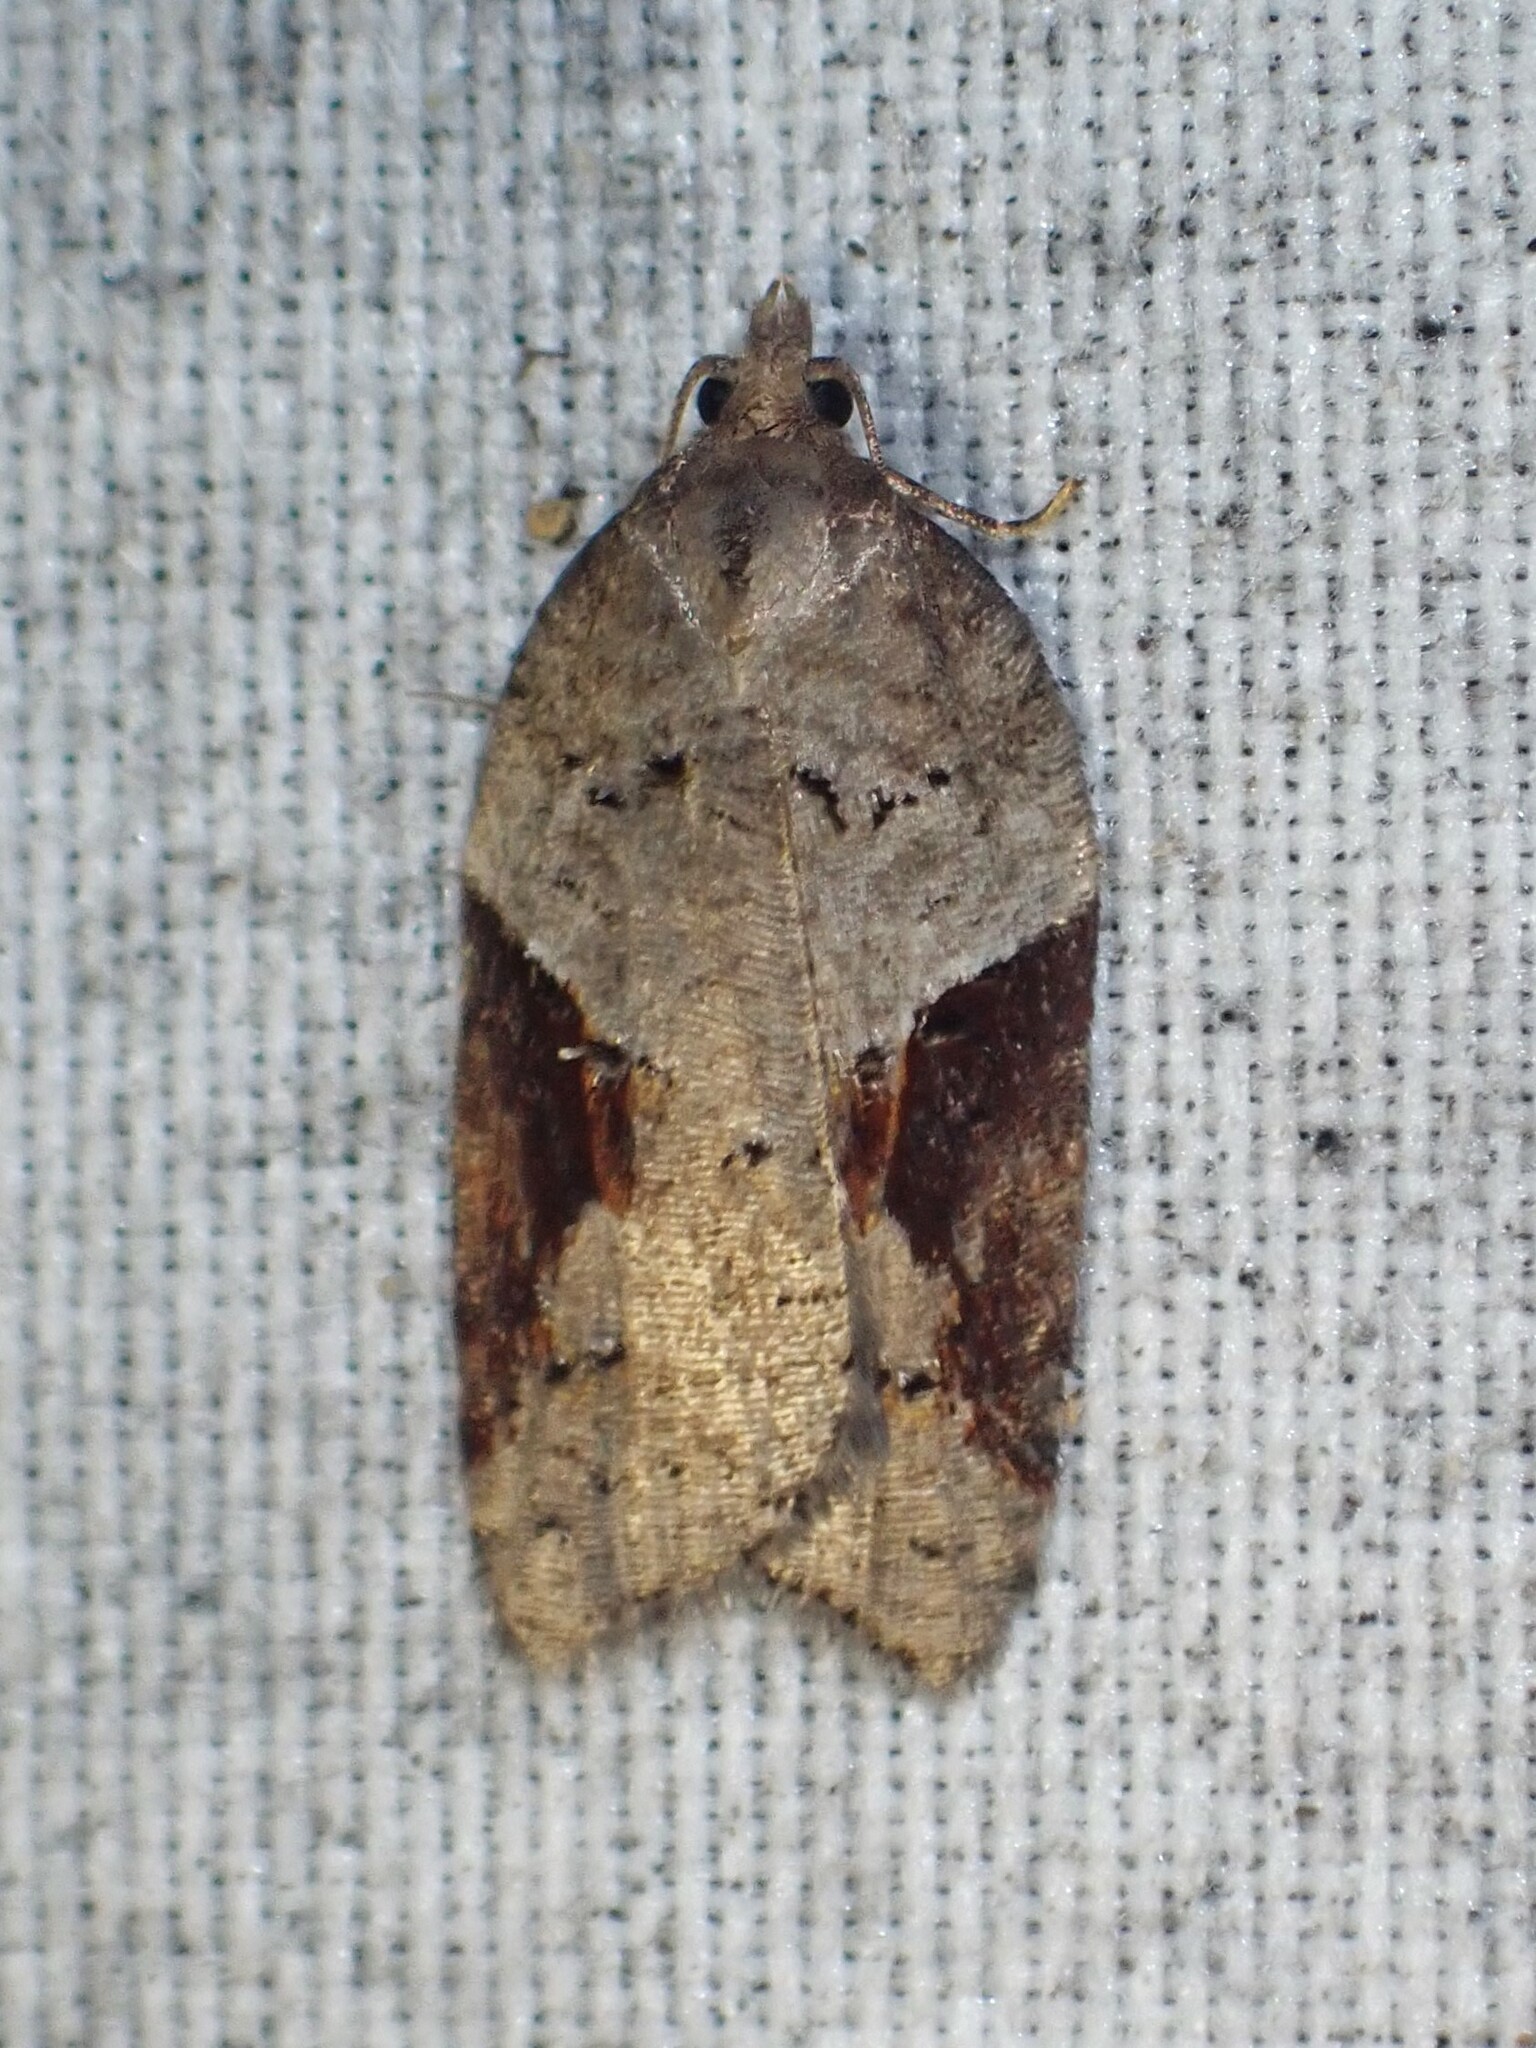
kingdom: Animalia
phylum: Arthropoda
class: Insecta
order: Lepidoptera
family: Tortricidae
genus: Acleris
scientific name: Acleris macdunnoughi
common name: Macdunnough's acleris
